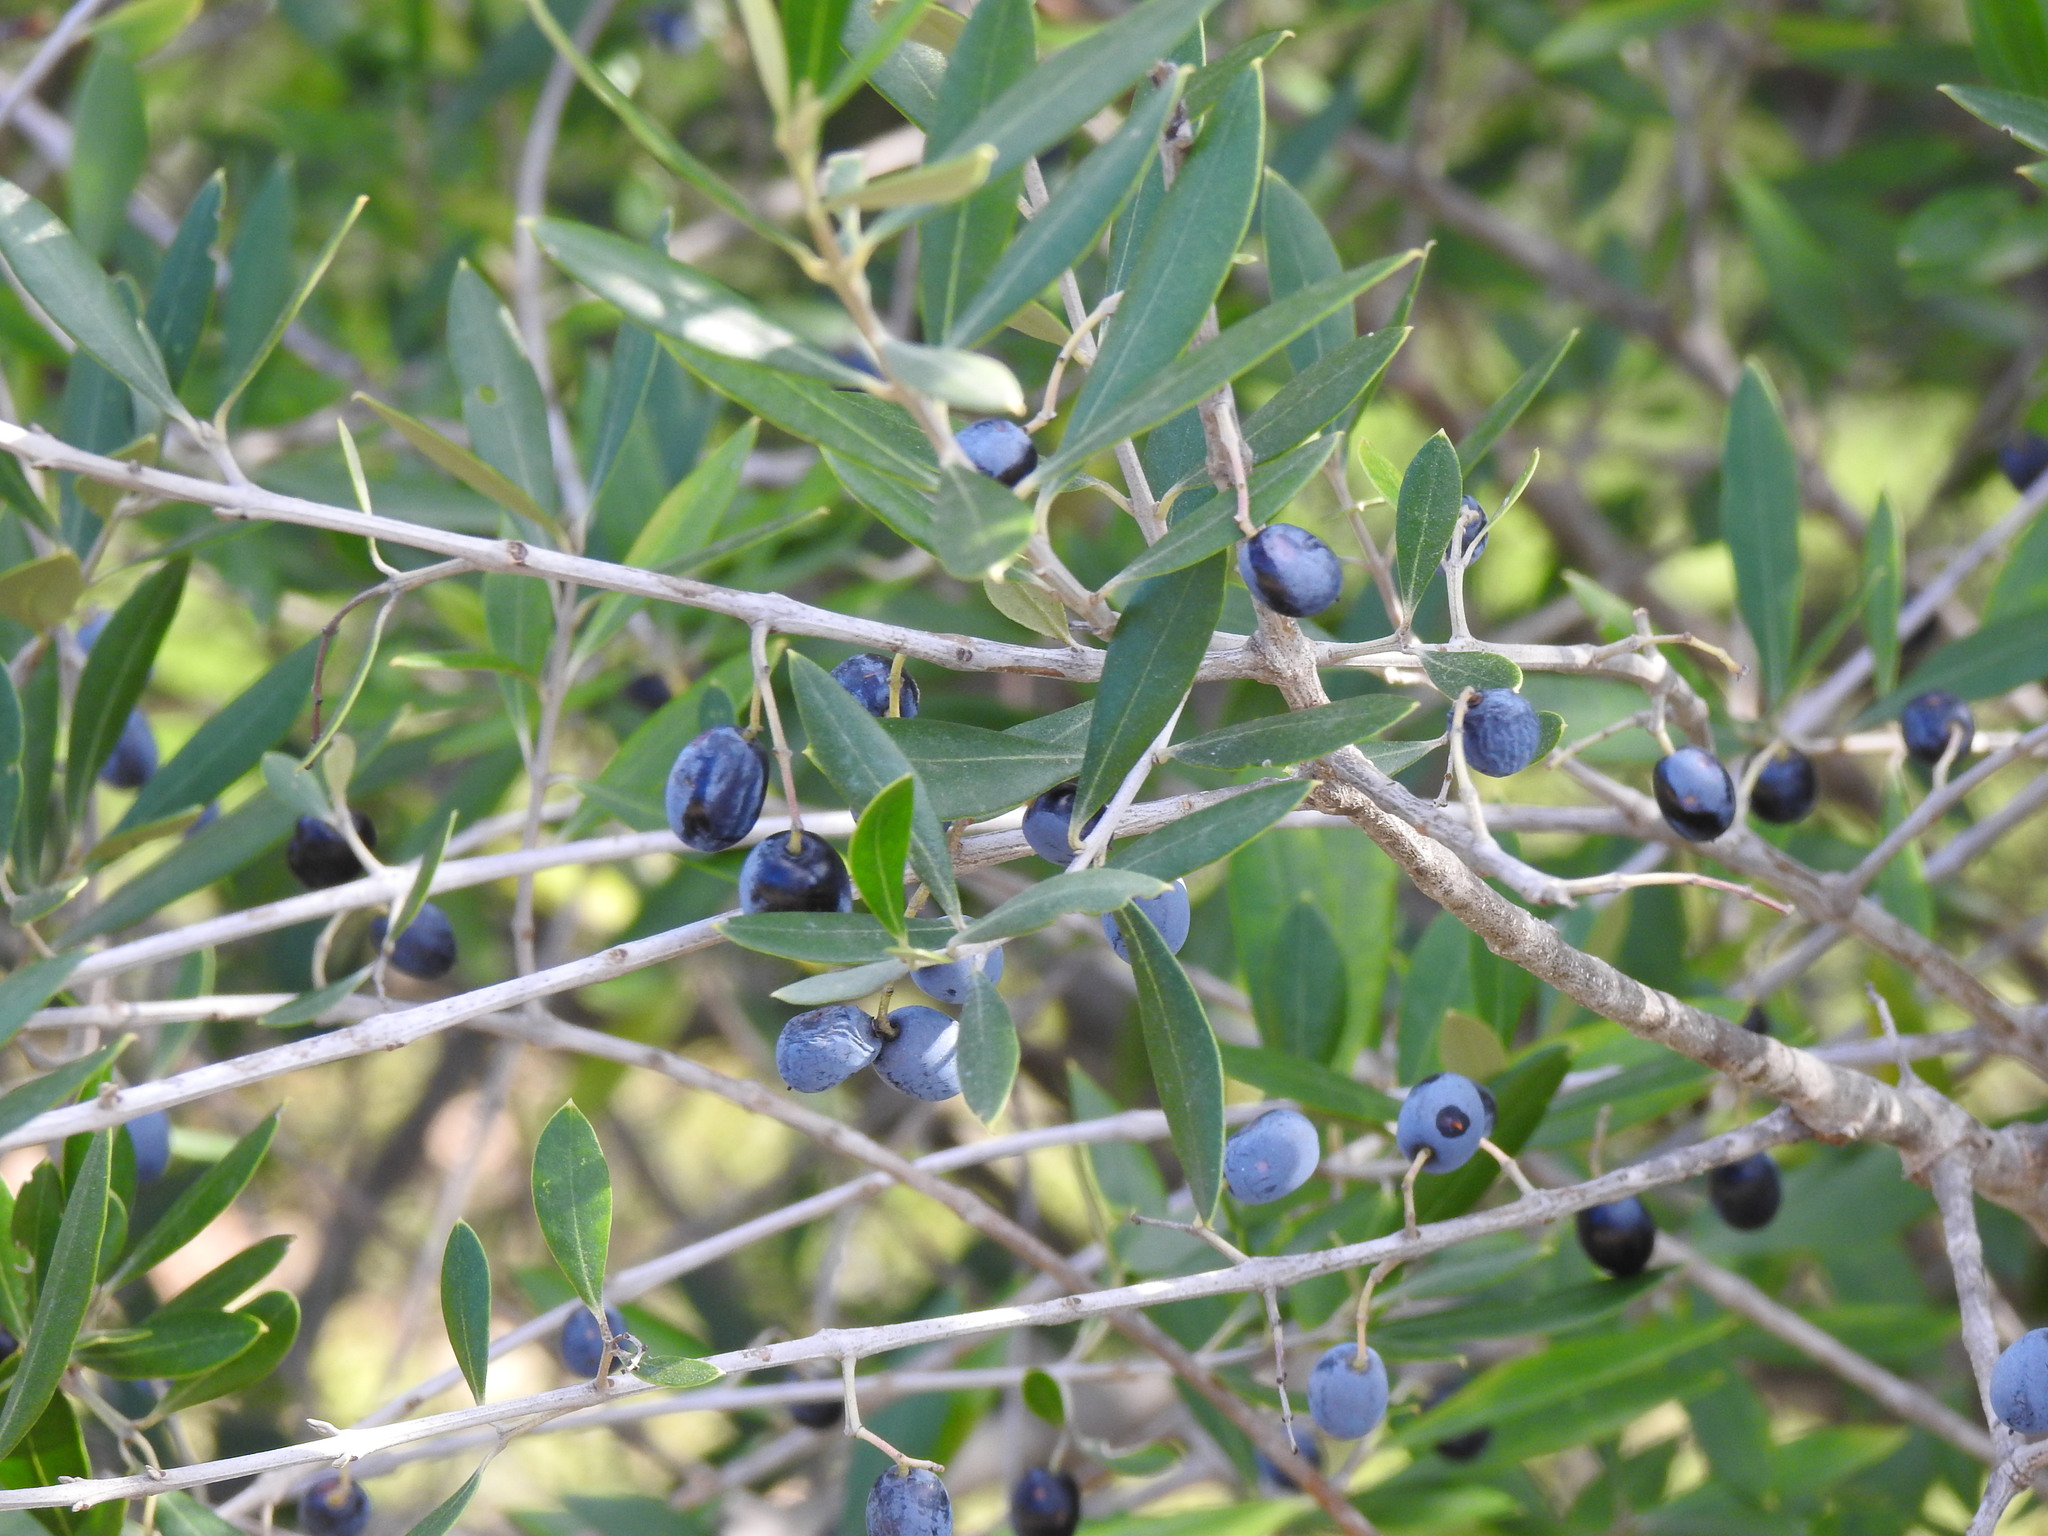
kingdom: Plantae
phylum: Tracheophyta
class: Magnoliopsida
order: Lamiales
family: Oleaceae
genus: Olea
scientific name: Olea europaea
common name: Olive
